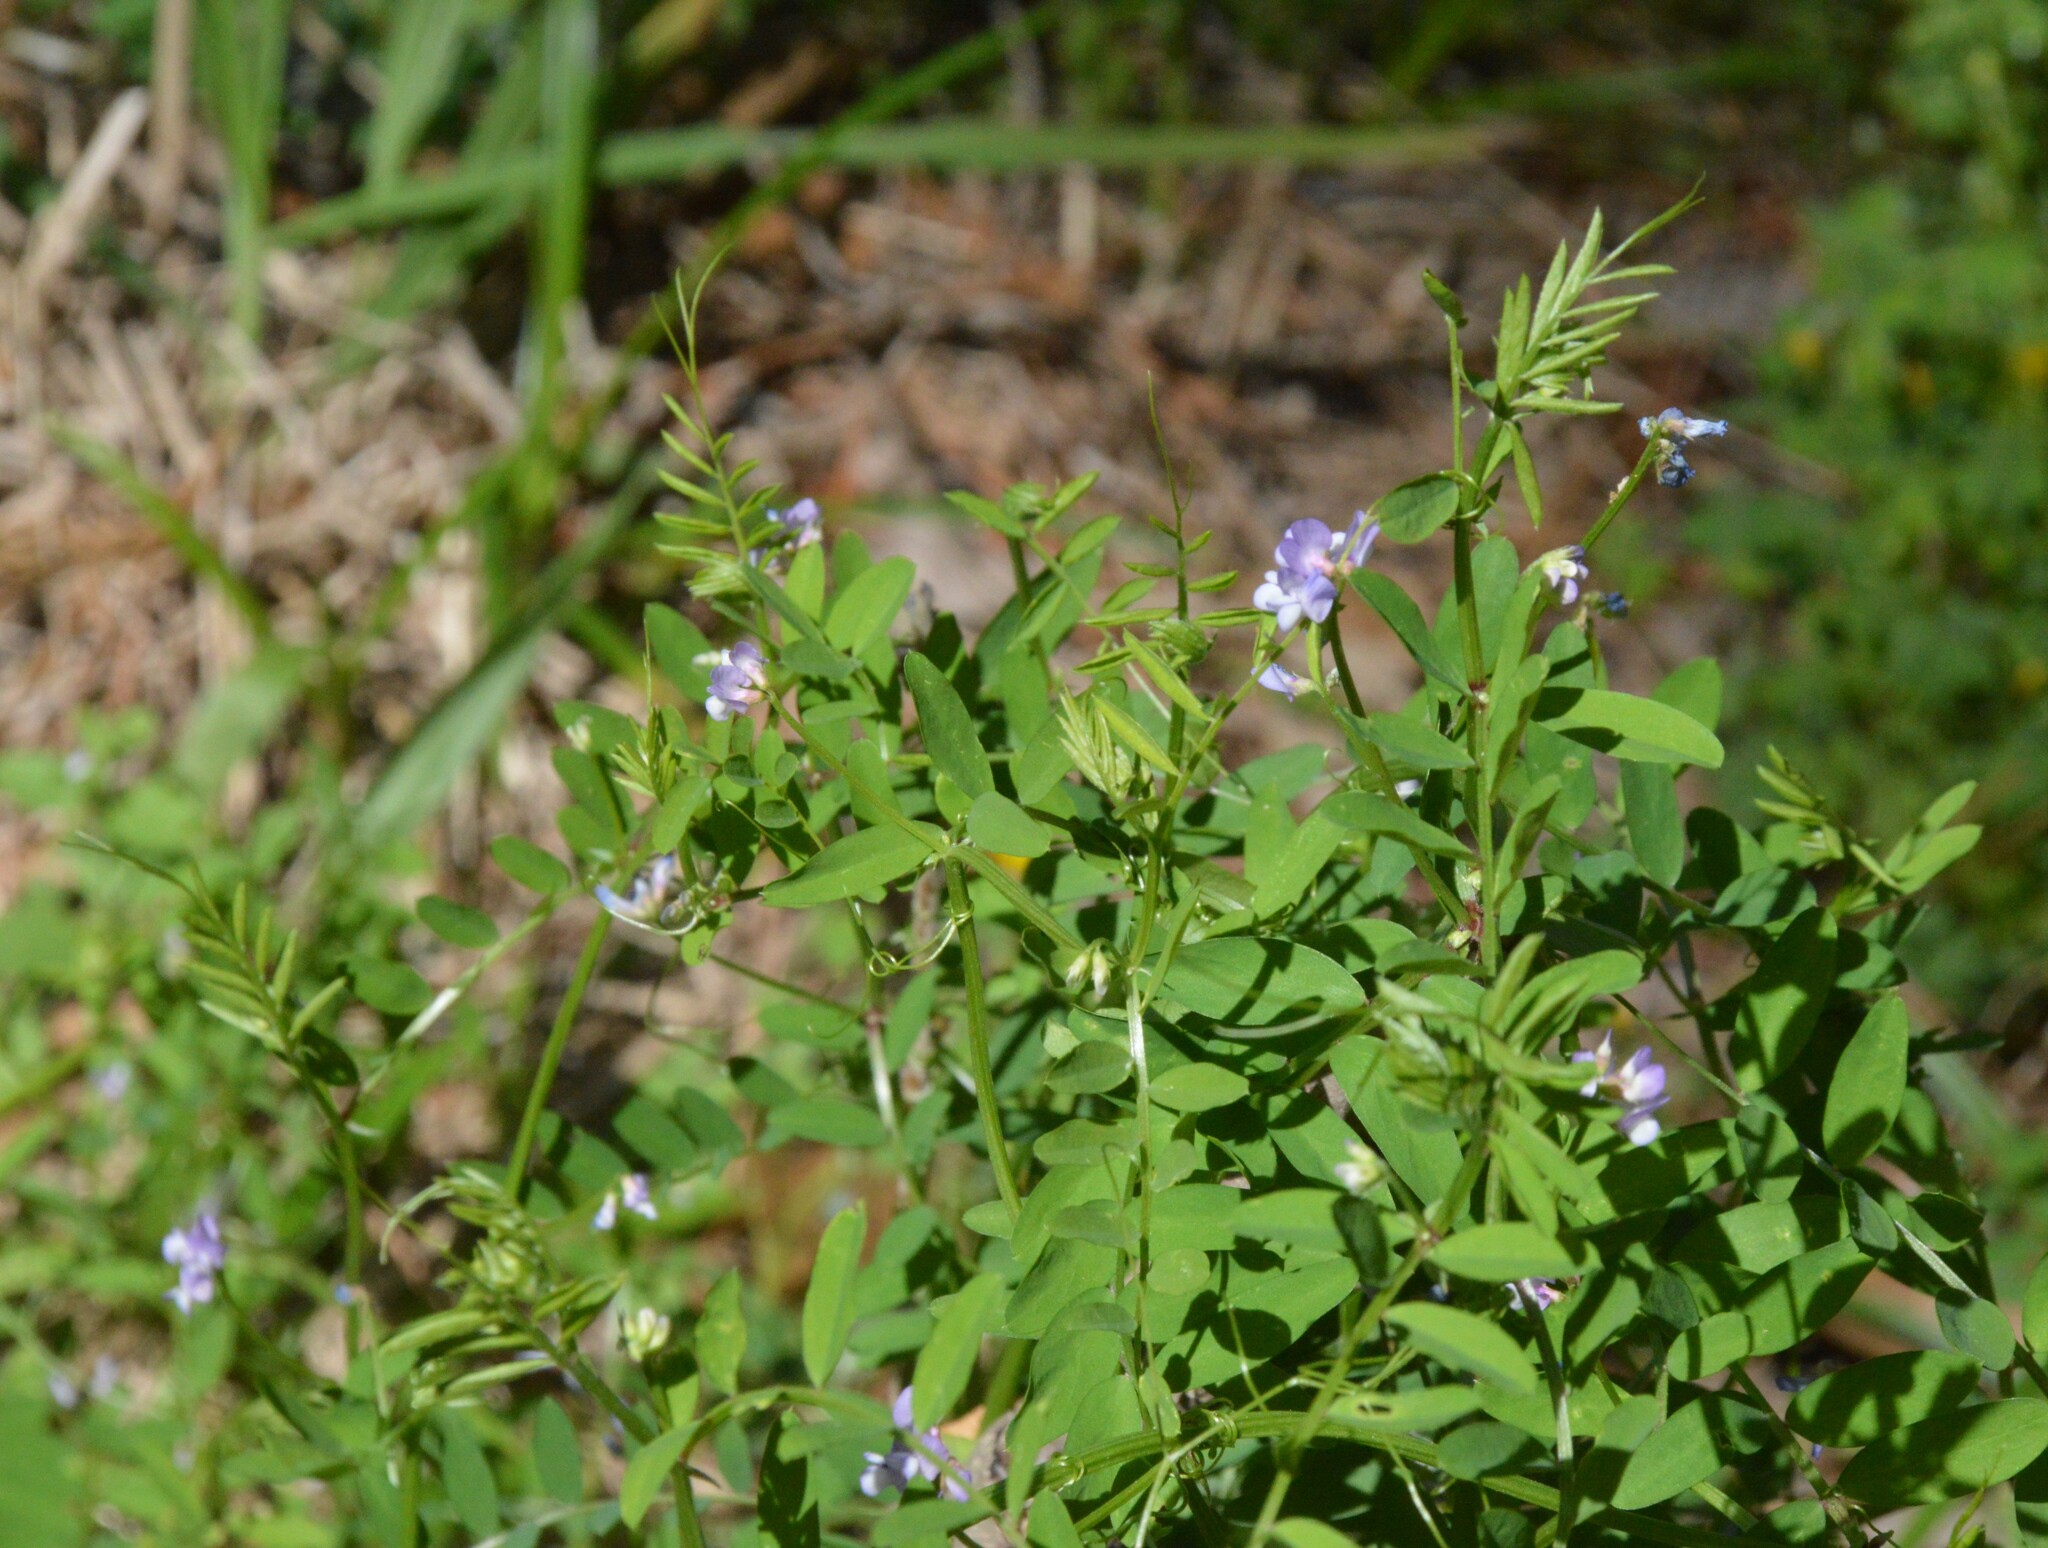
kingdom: Plantae
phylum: Tracheophyta
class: Magnoliopsida
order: Fabales
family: Fabaceae
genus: Vicia
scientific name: Vicia ludoviciana
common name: Louisiana vetch
